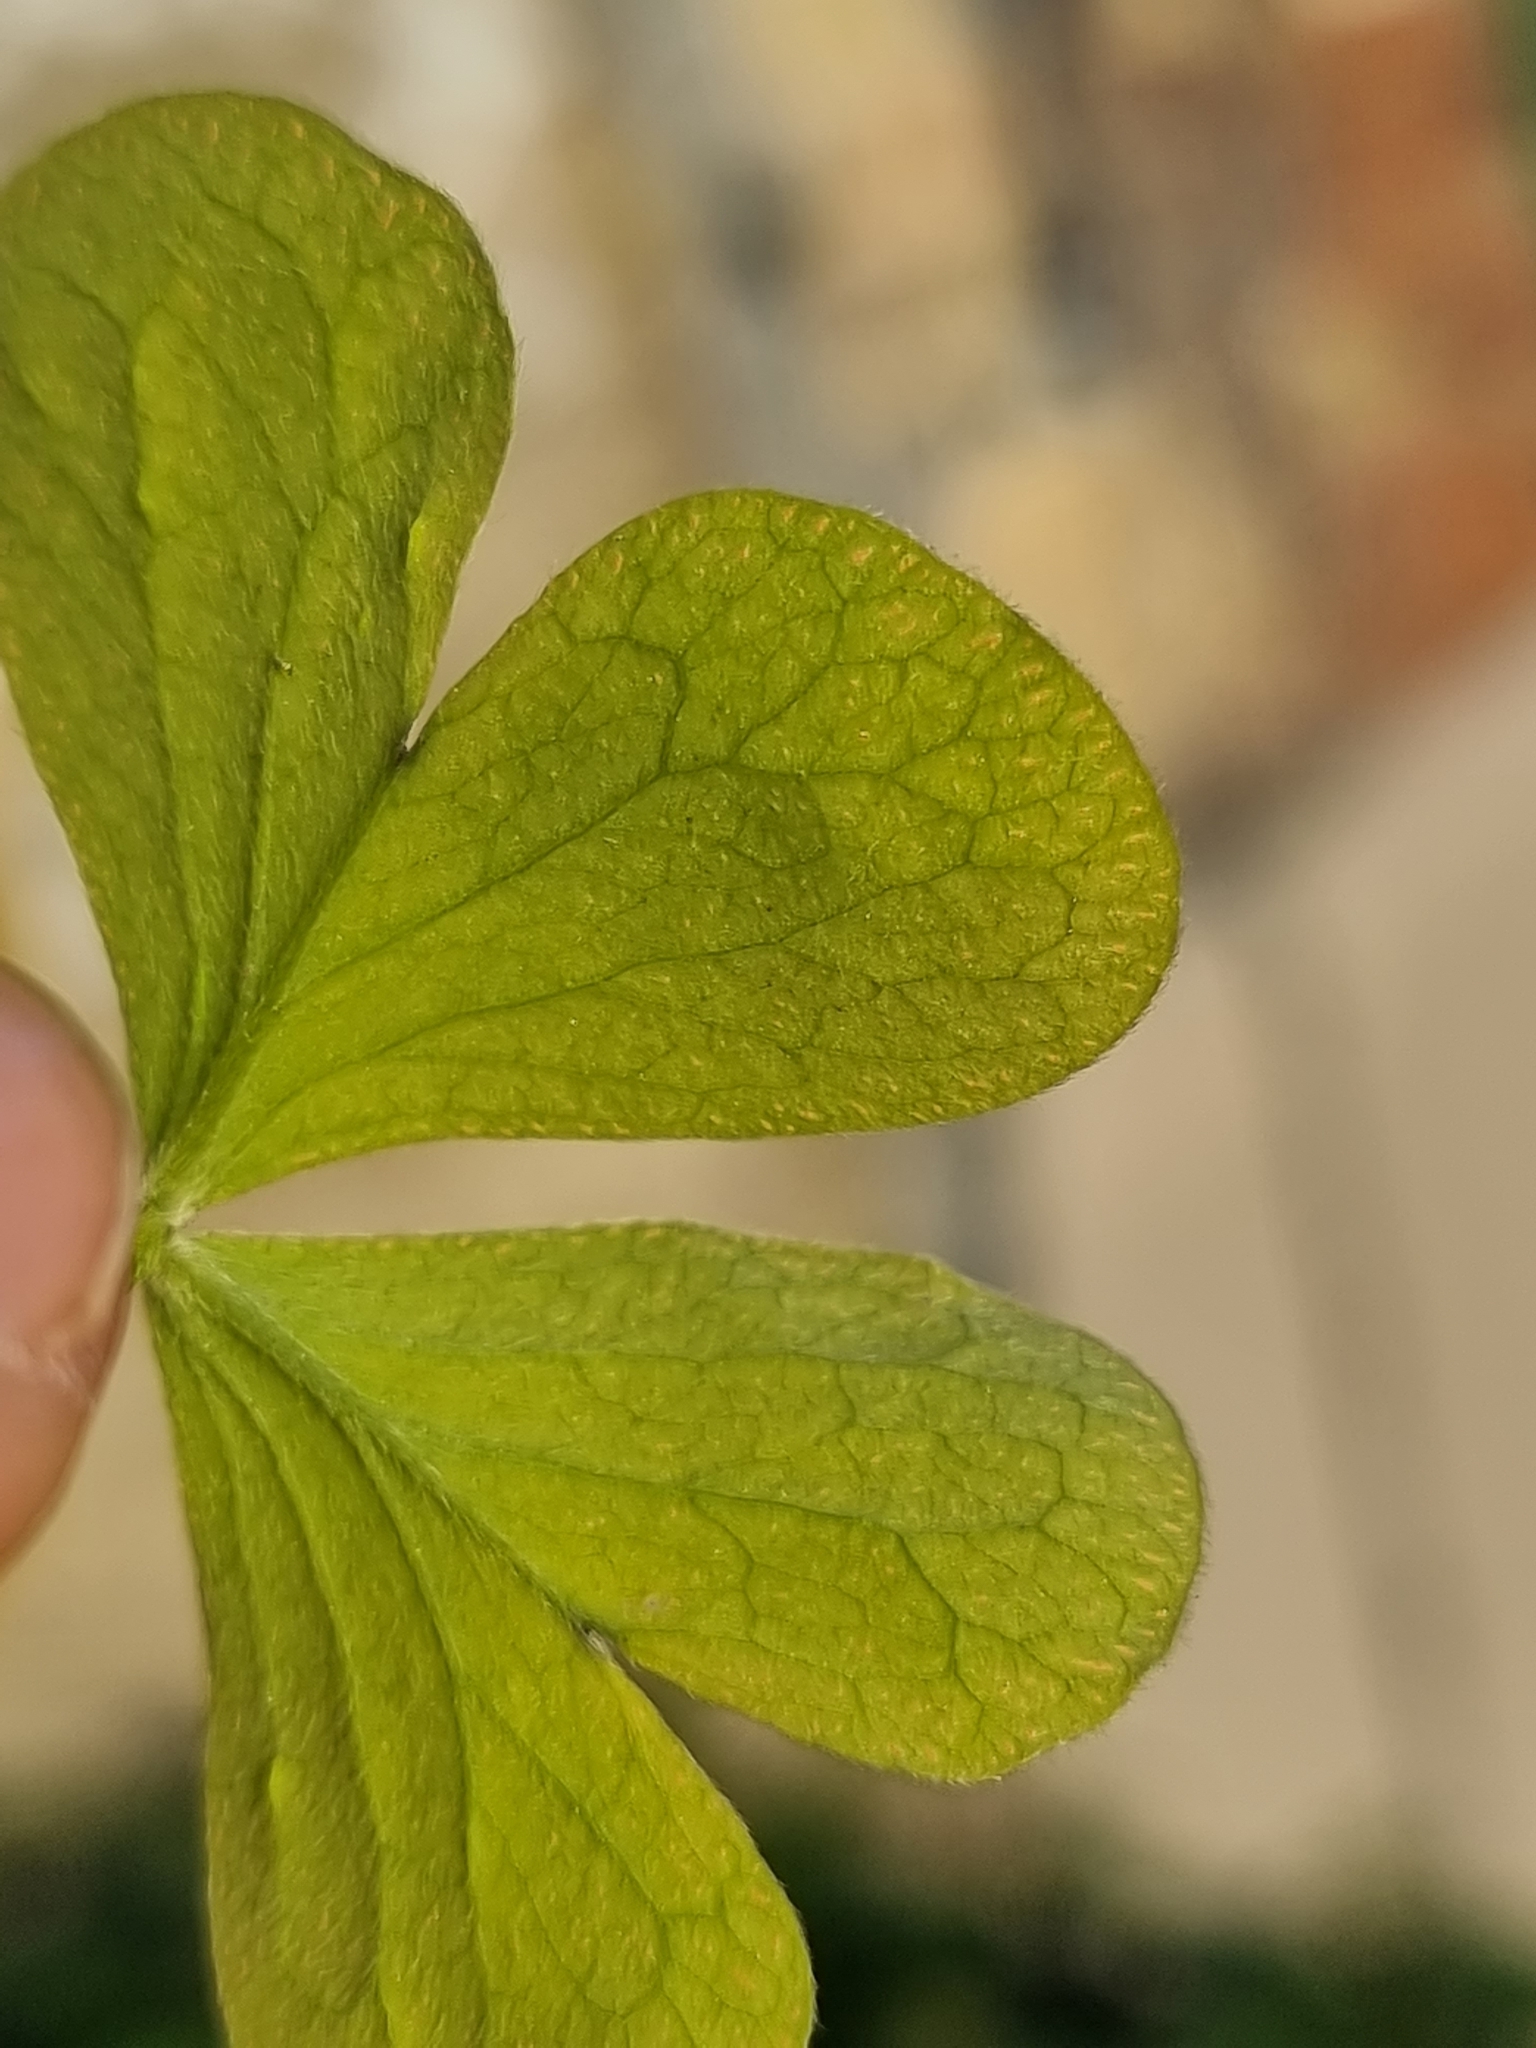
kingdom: Plantae
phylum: Tracheophyta
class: Magnoliopsida
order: Oxalidales
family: Oxalidaceae
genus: Oxalis
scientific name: Oxalis articulata
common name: Pink-sorrel
